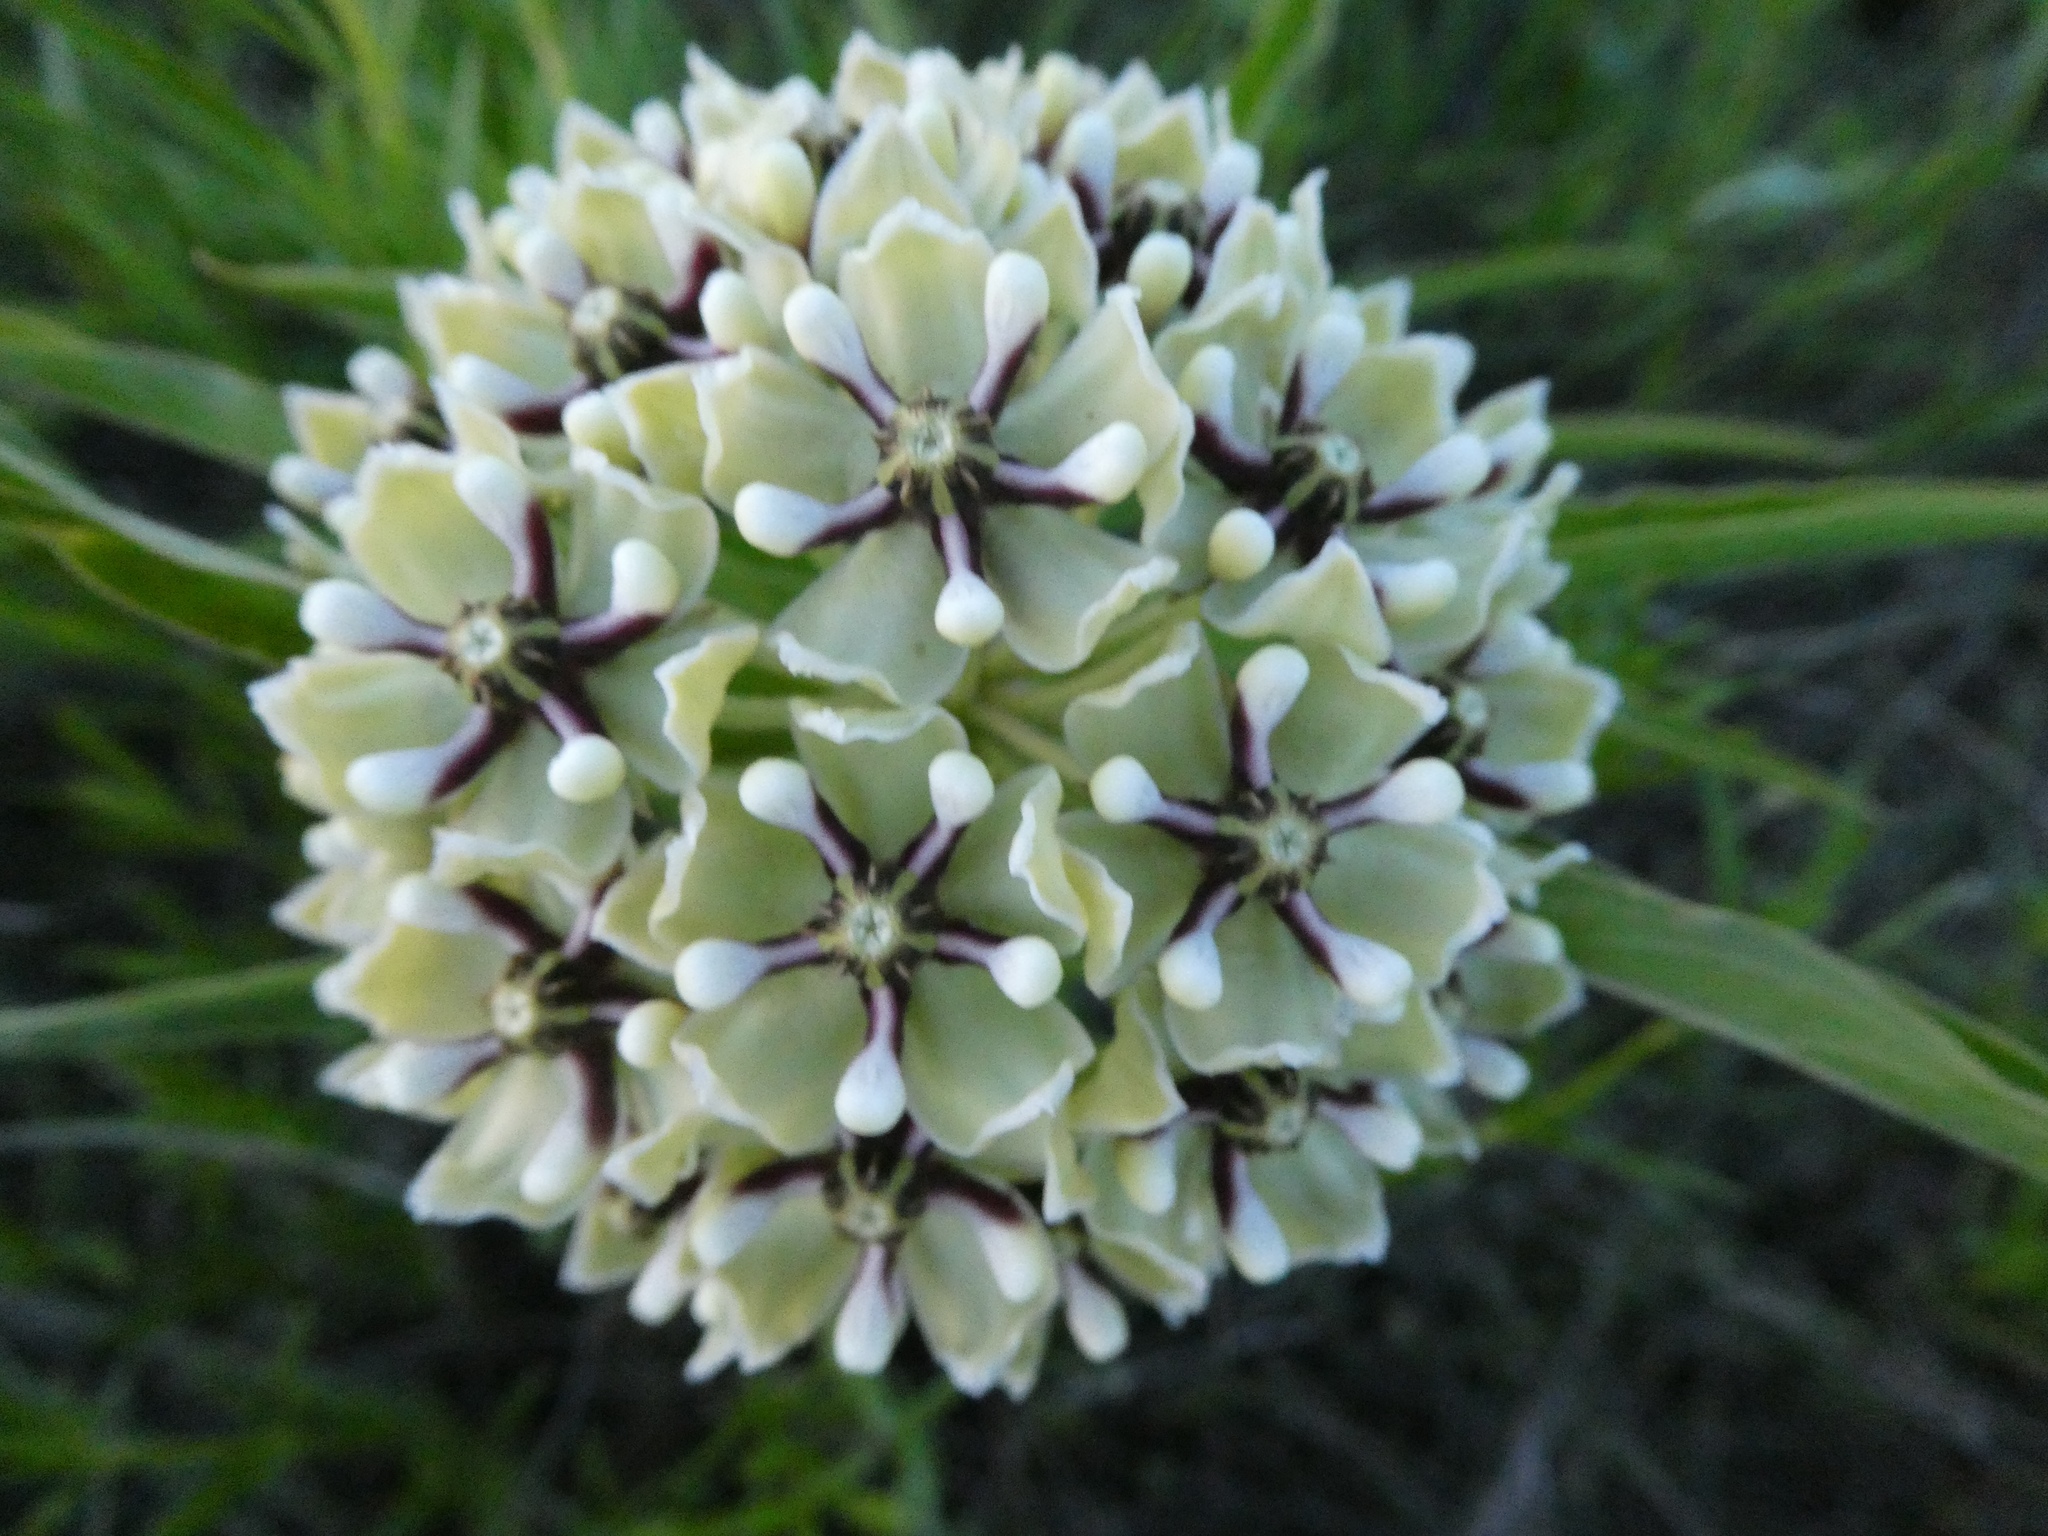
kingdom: Plantae
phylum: Tracheophyta
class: Magnoliopsida
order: Gentianales
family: Apocynaceae
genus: Asclepias
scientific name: Asclepias asperula
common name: Antelope horns
